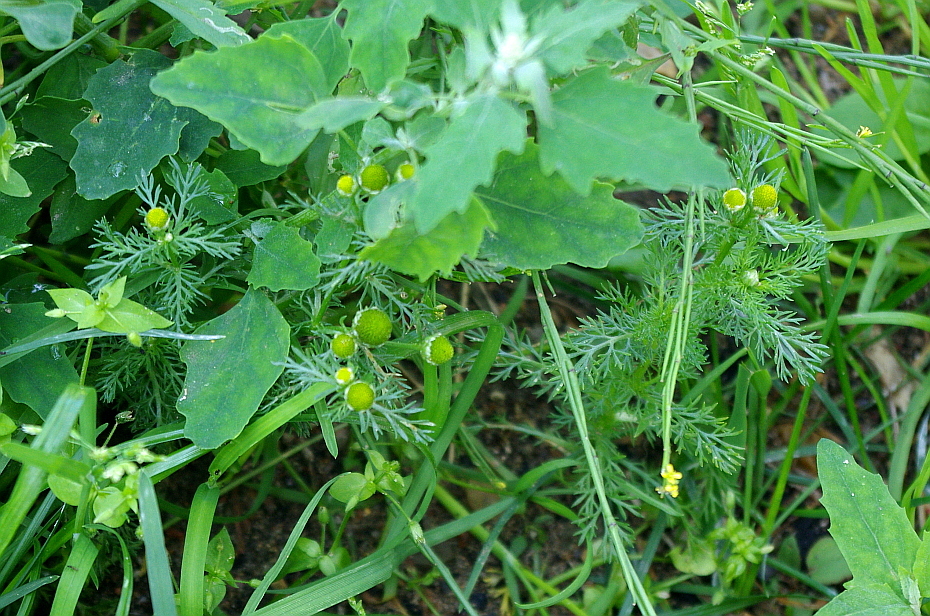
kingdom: Plantae
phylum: Tracheophyta
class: Magnoliopsida
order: Asterales
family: Asteraceae
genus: Matricaria
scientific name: Matricaria discoidea
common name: Disc mayweed
